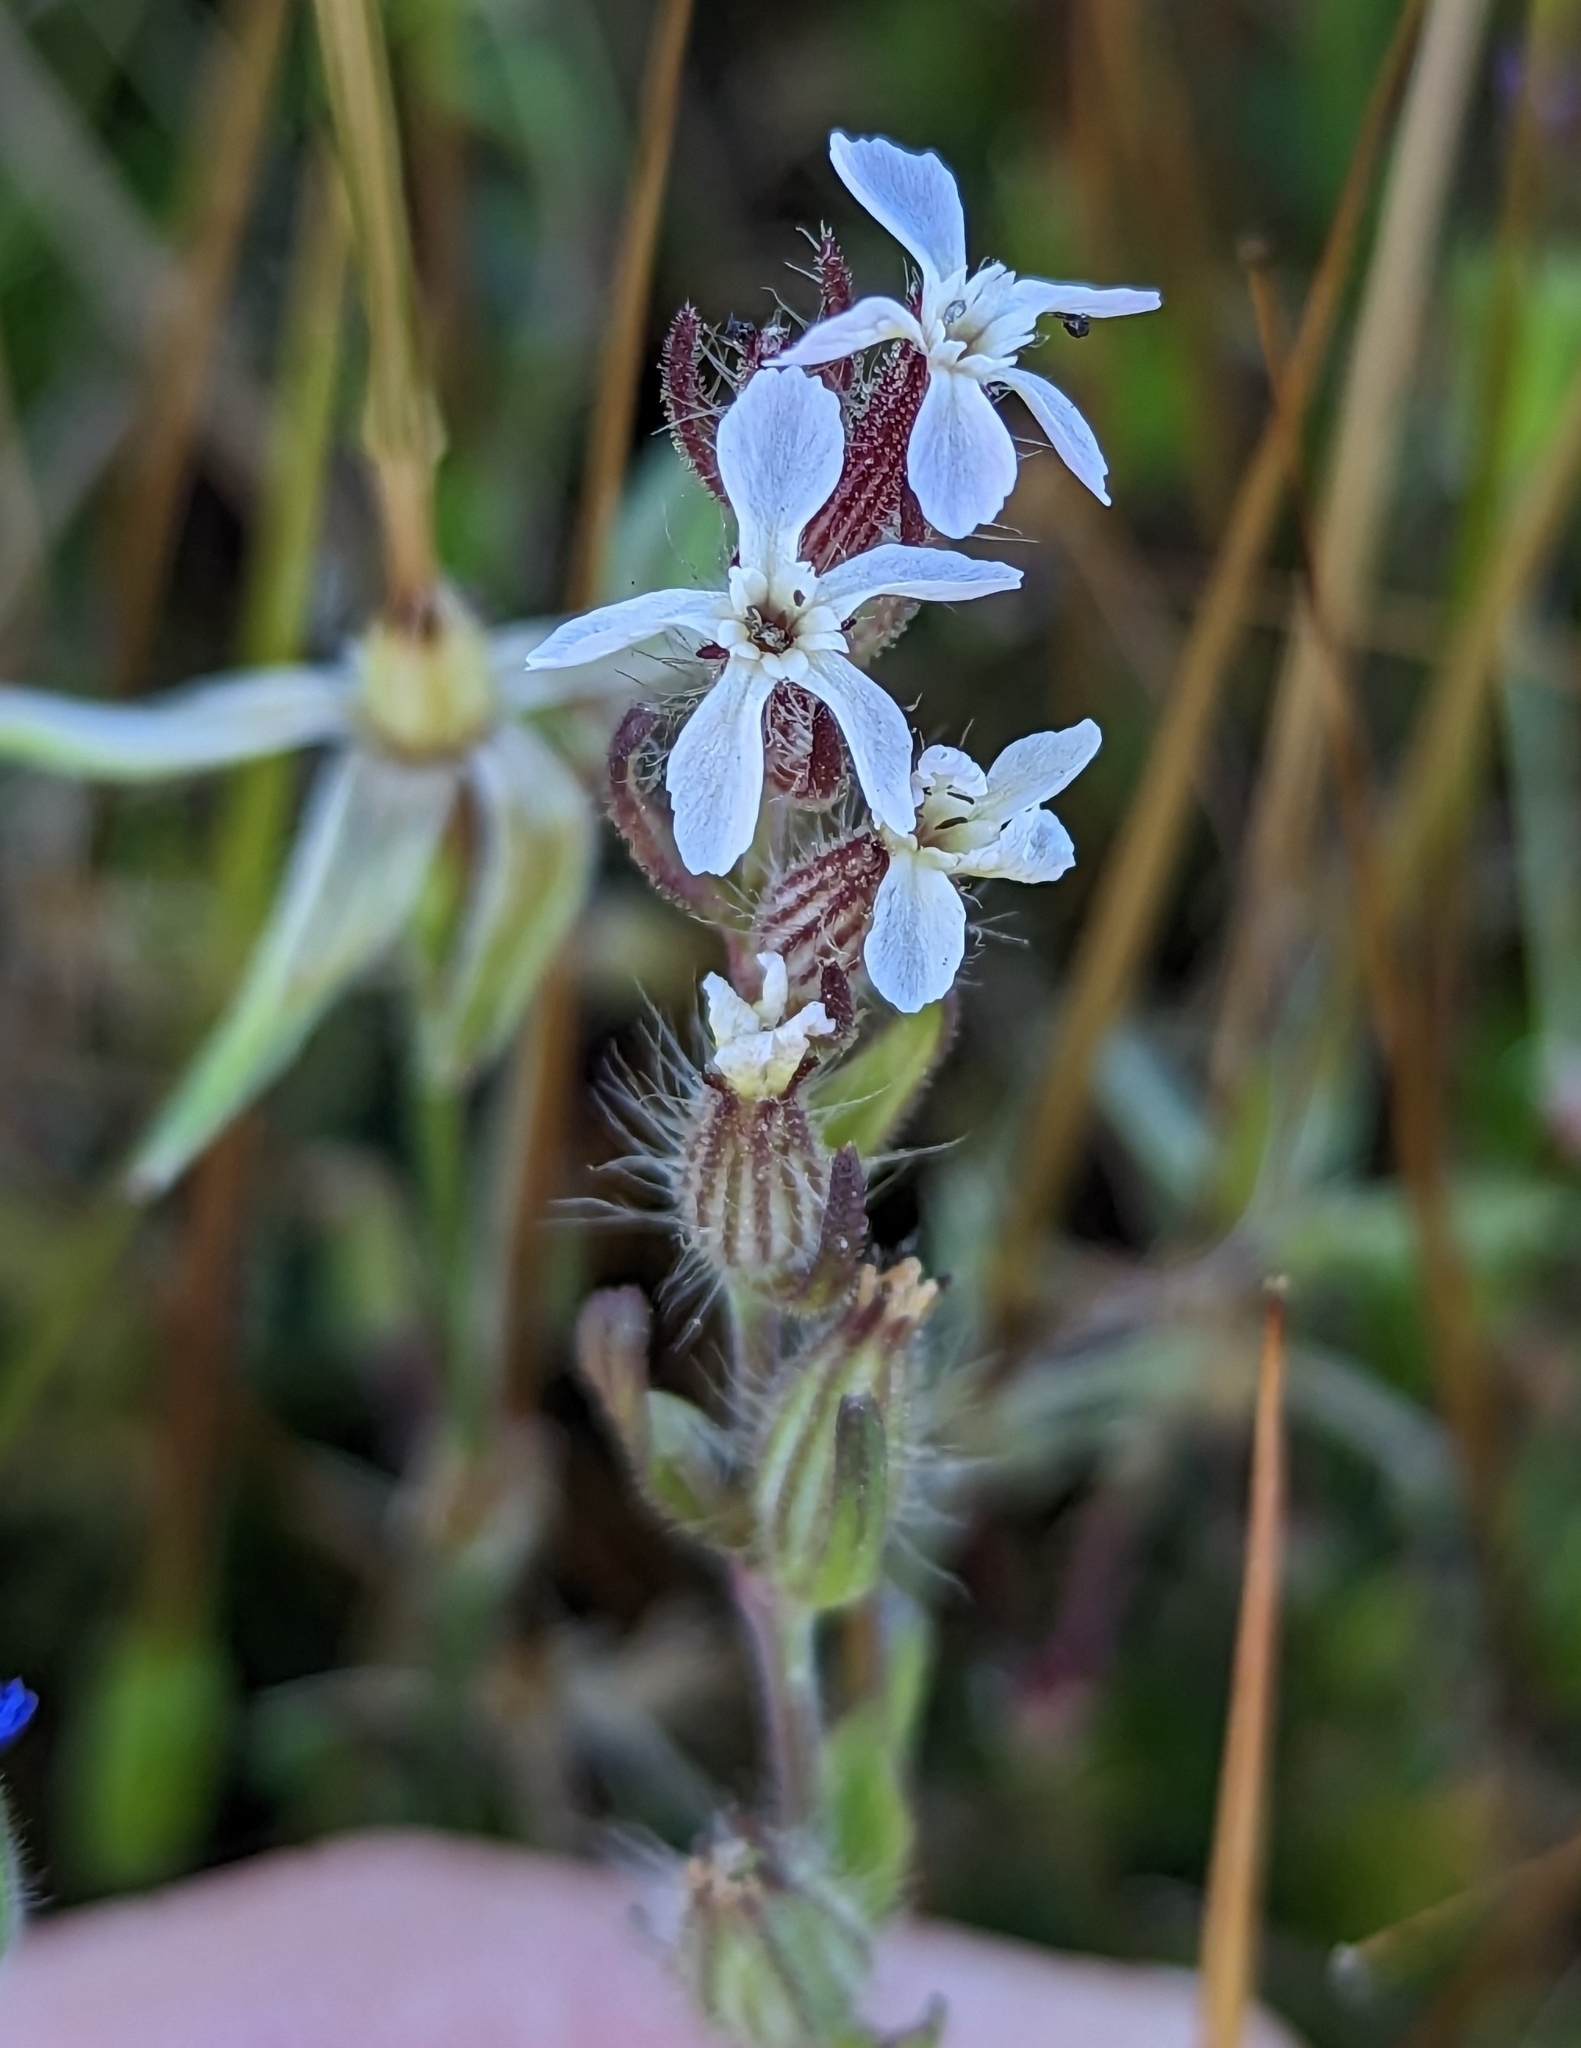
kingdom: Plantae
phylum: Tracheophyta
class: Magnoliopsida
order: Caryophyllales
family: Caryophyllaceae
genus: Silene
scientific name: Silene gallica
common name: Small-flowered catchfly
